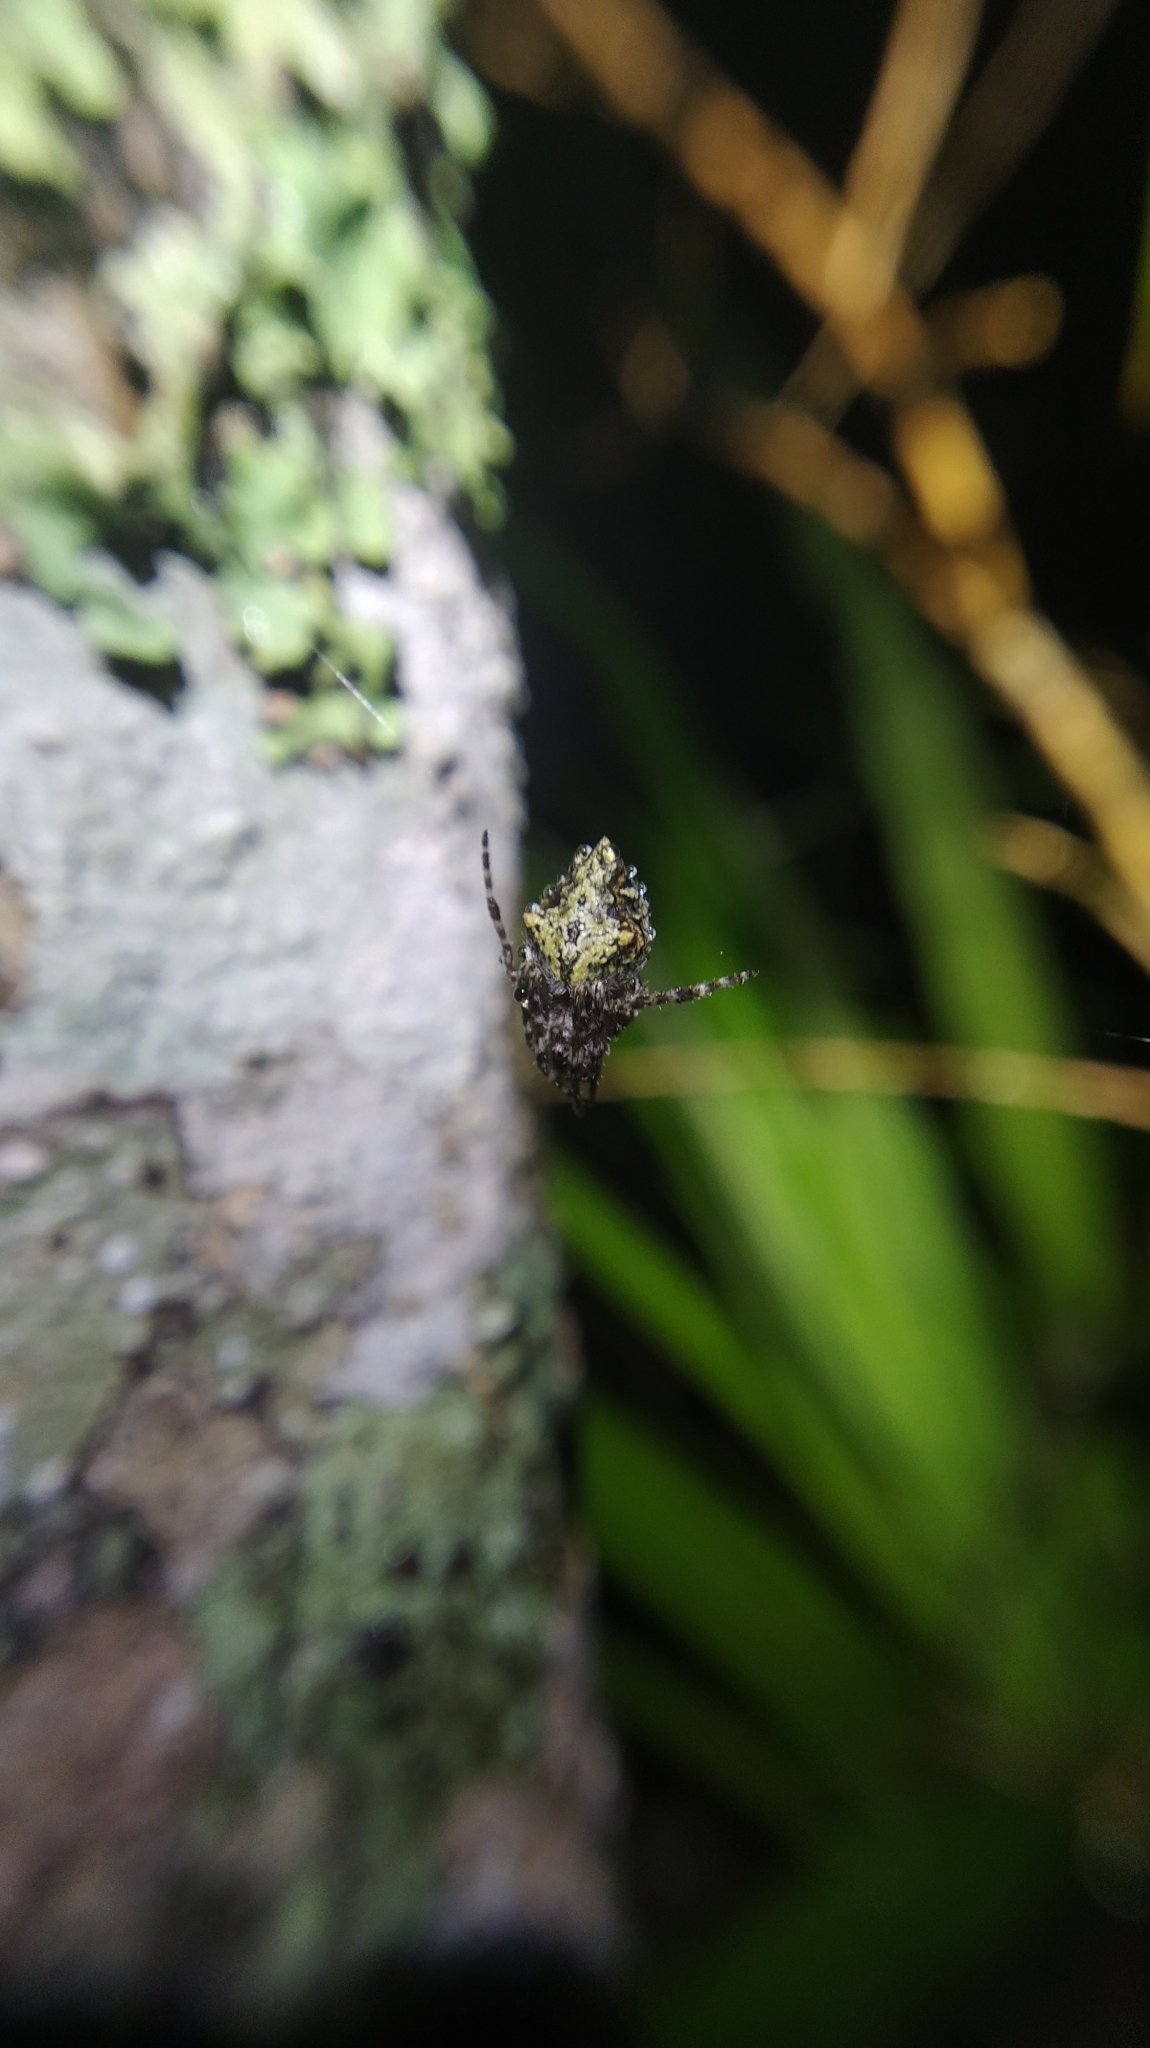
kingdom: Animalia
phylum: Arthropoda
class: Arachnida
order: Araneae
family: Araneidae
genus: Eriophora
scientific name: Eriophora pustulosa
